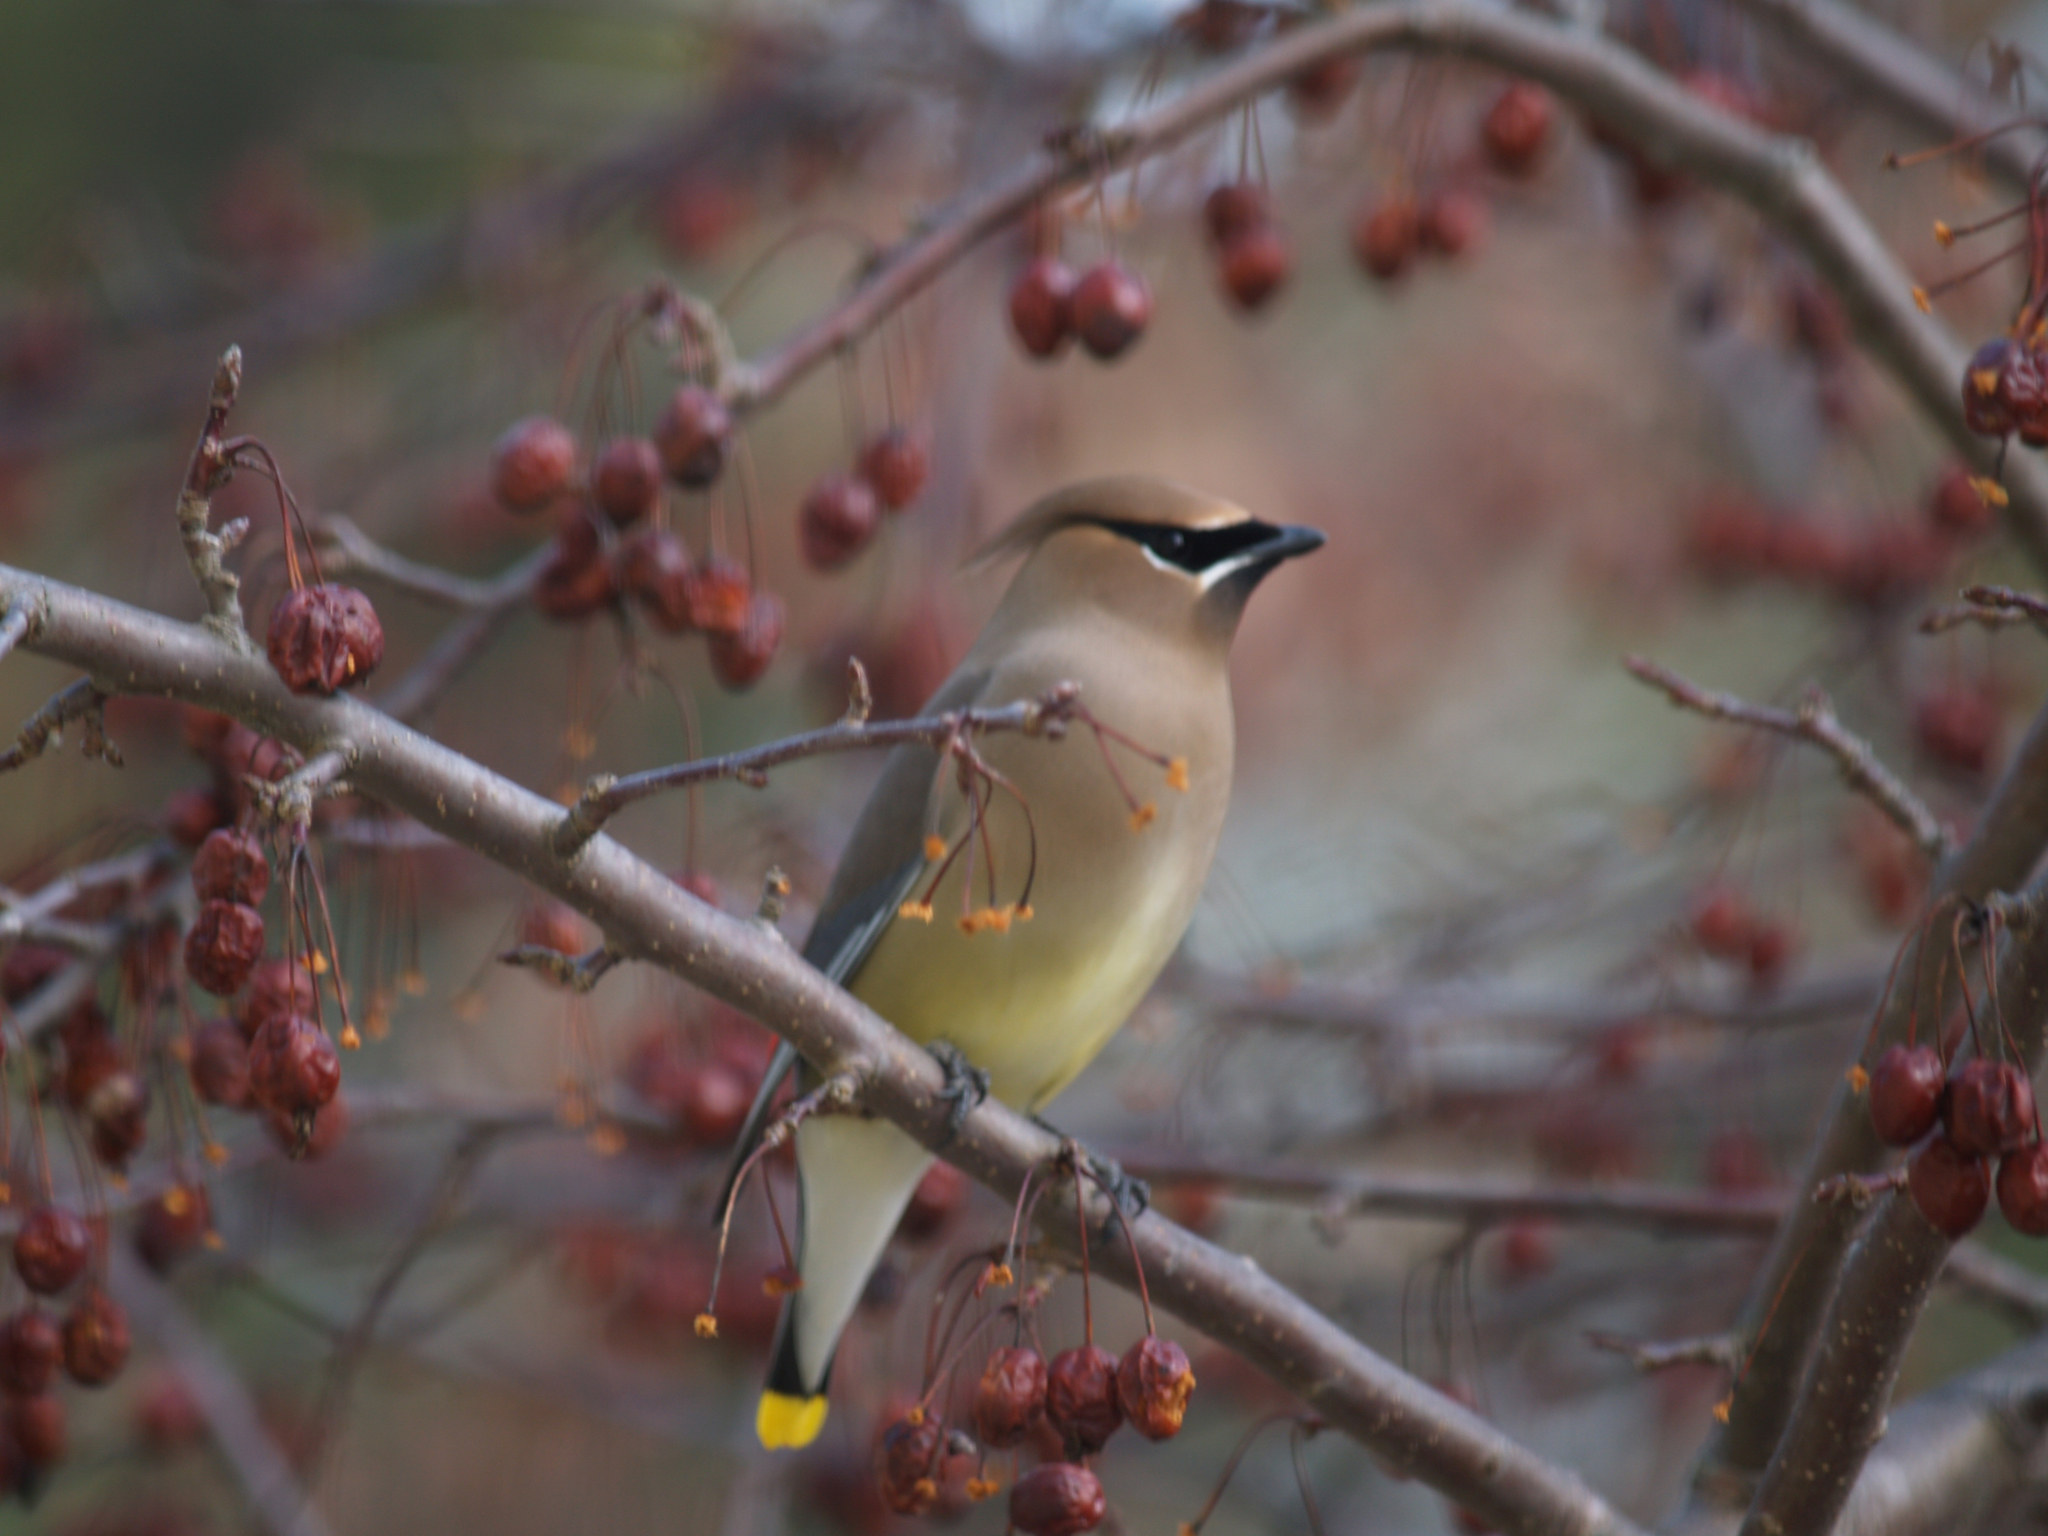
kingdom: Animalia
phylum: Chordata
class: Aves
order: Passeriformes
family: Bombycillidae
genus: Bombycilla
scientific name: Bombycilla cedrorum
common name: Cedar waxwing
